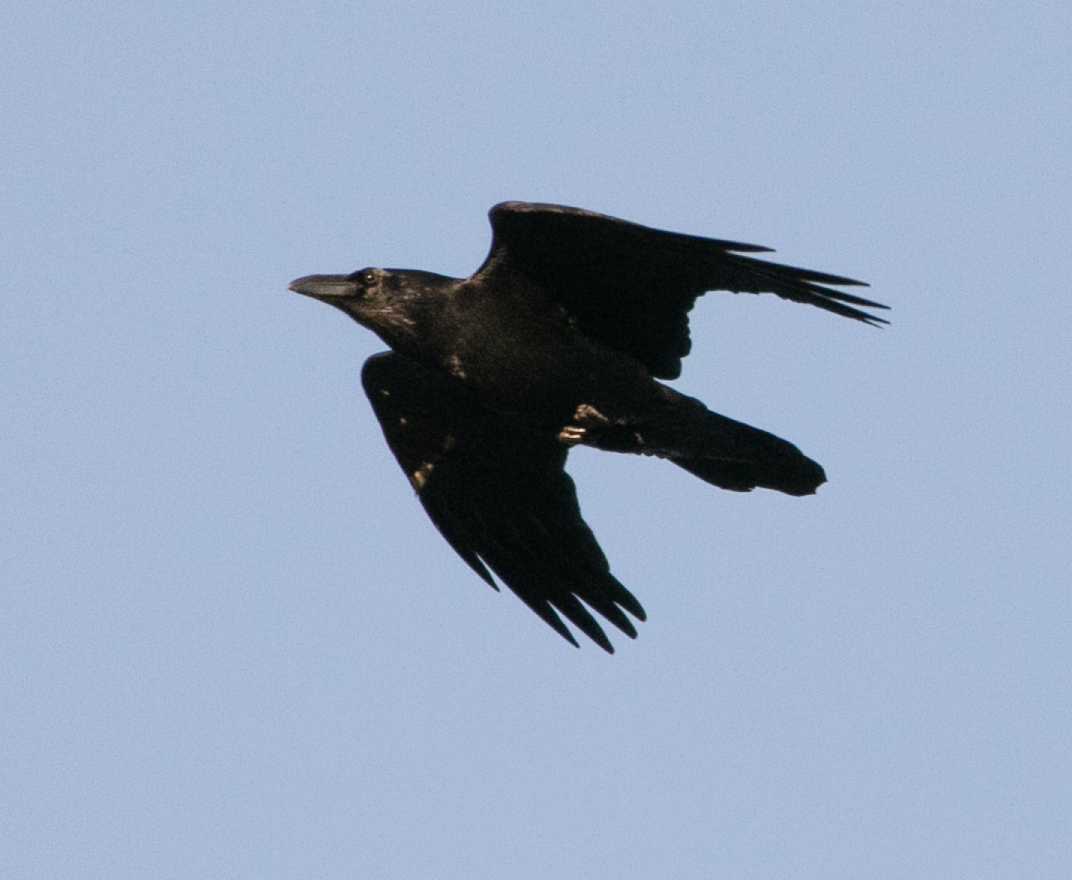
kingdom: Animalia
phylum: Chordata
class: Aves
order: Passeriformes
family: Corvidae
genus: Corvus
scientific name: Corvus corax
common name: Common raven
